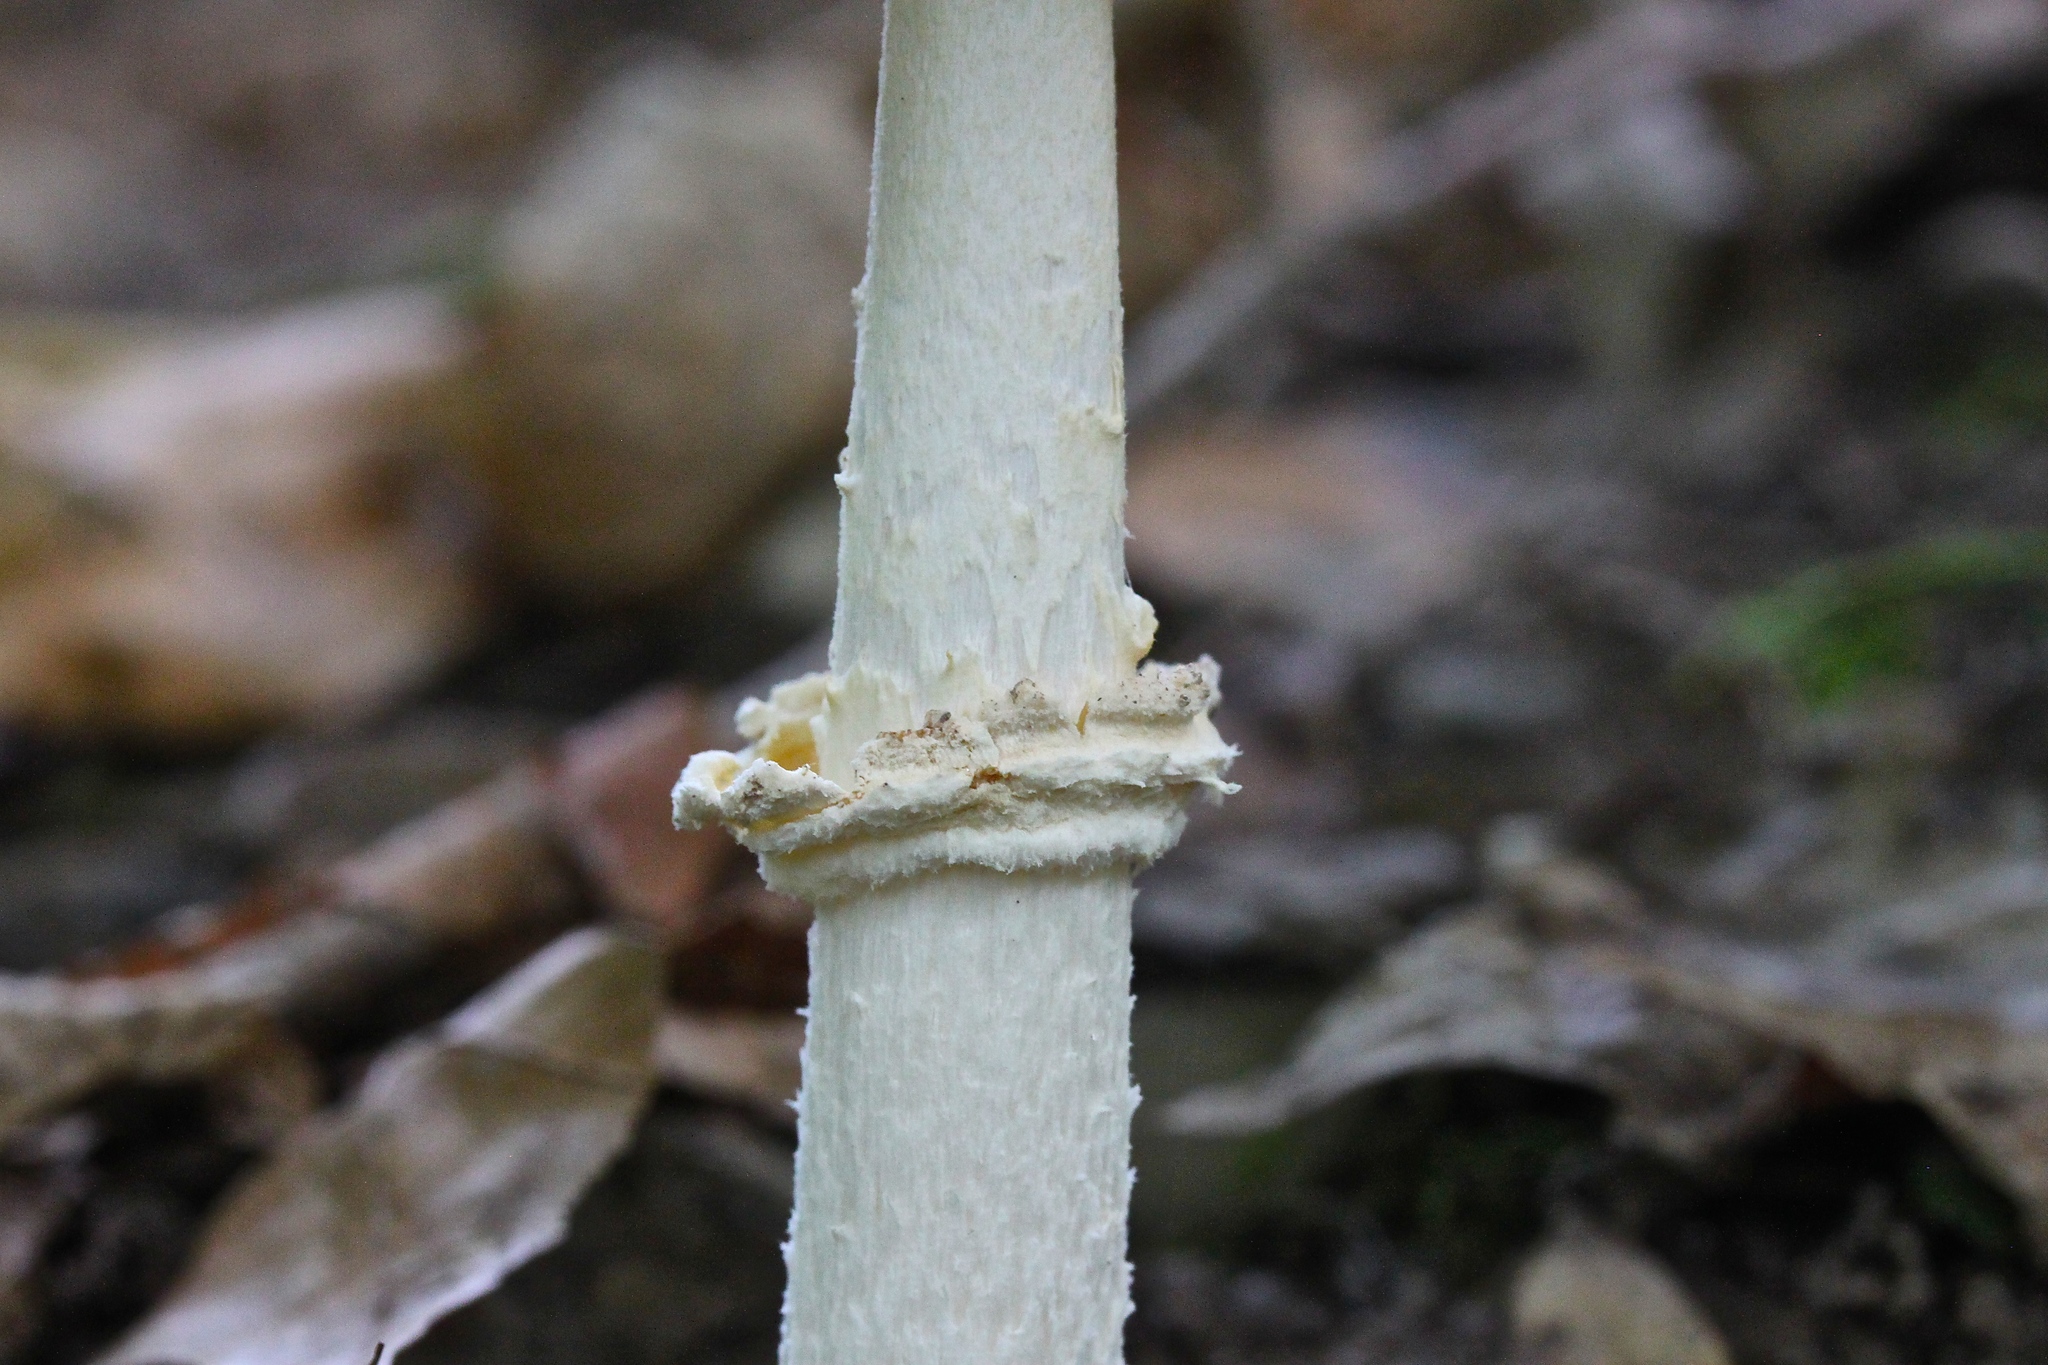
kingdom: Fungi
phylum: Basidiomycota
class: Agaricomycetes
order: Agaricales
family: Amanitaceae
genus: Amanita
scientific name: Amanita multisquamosa
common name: Small funnel-veil amanita
